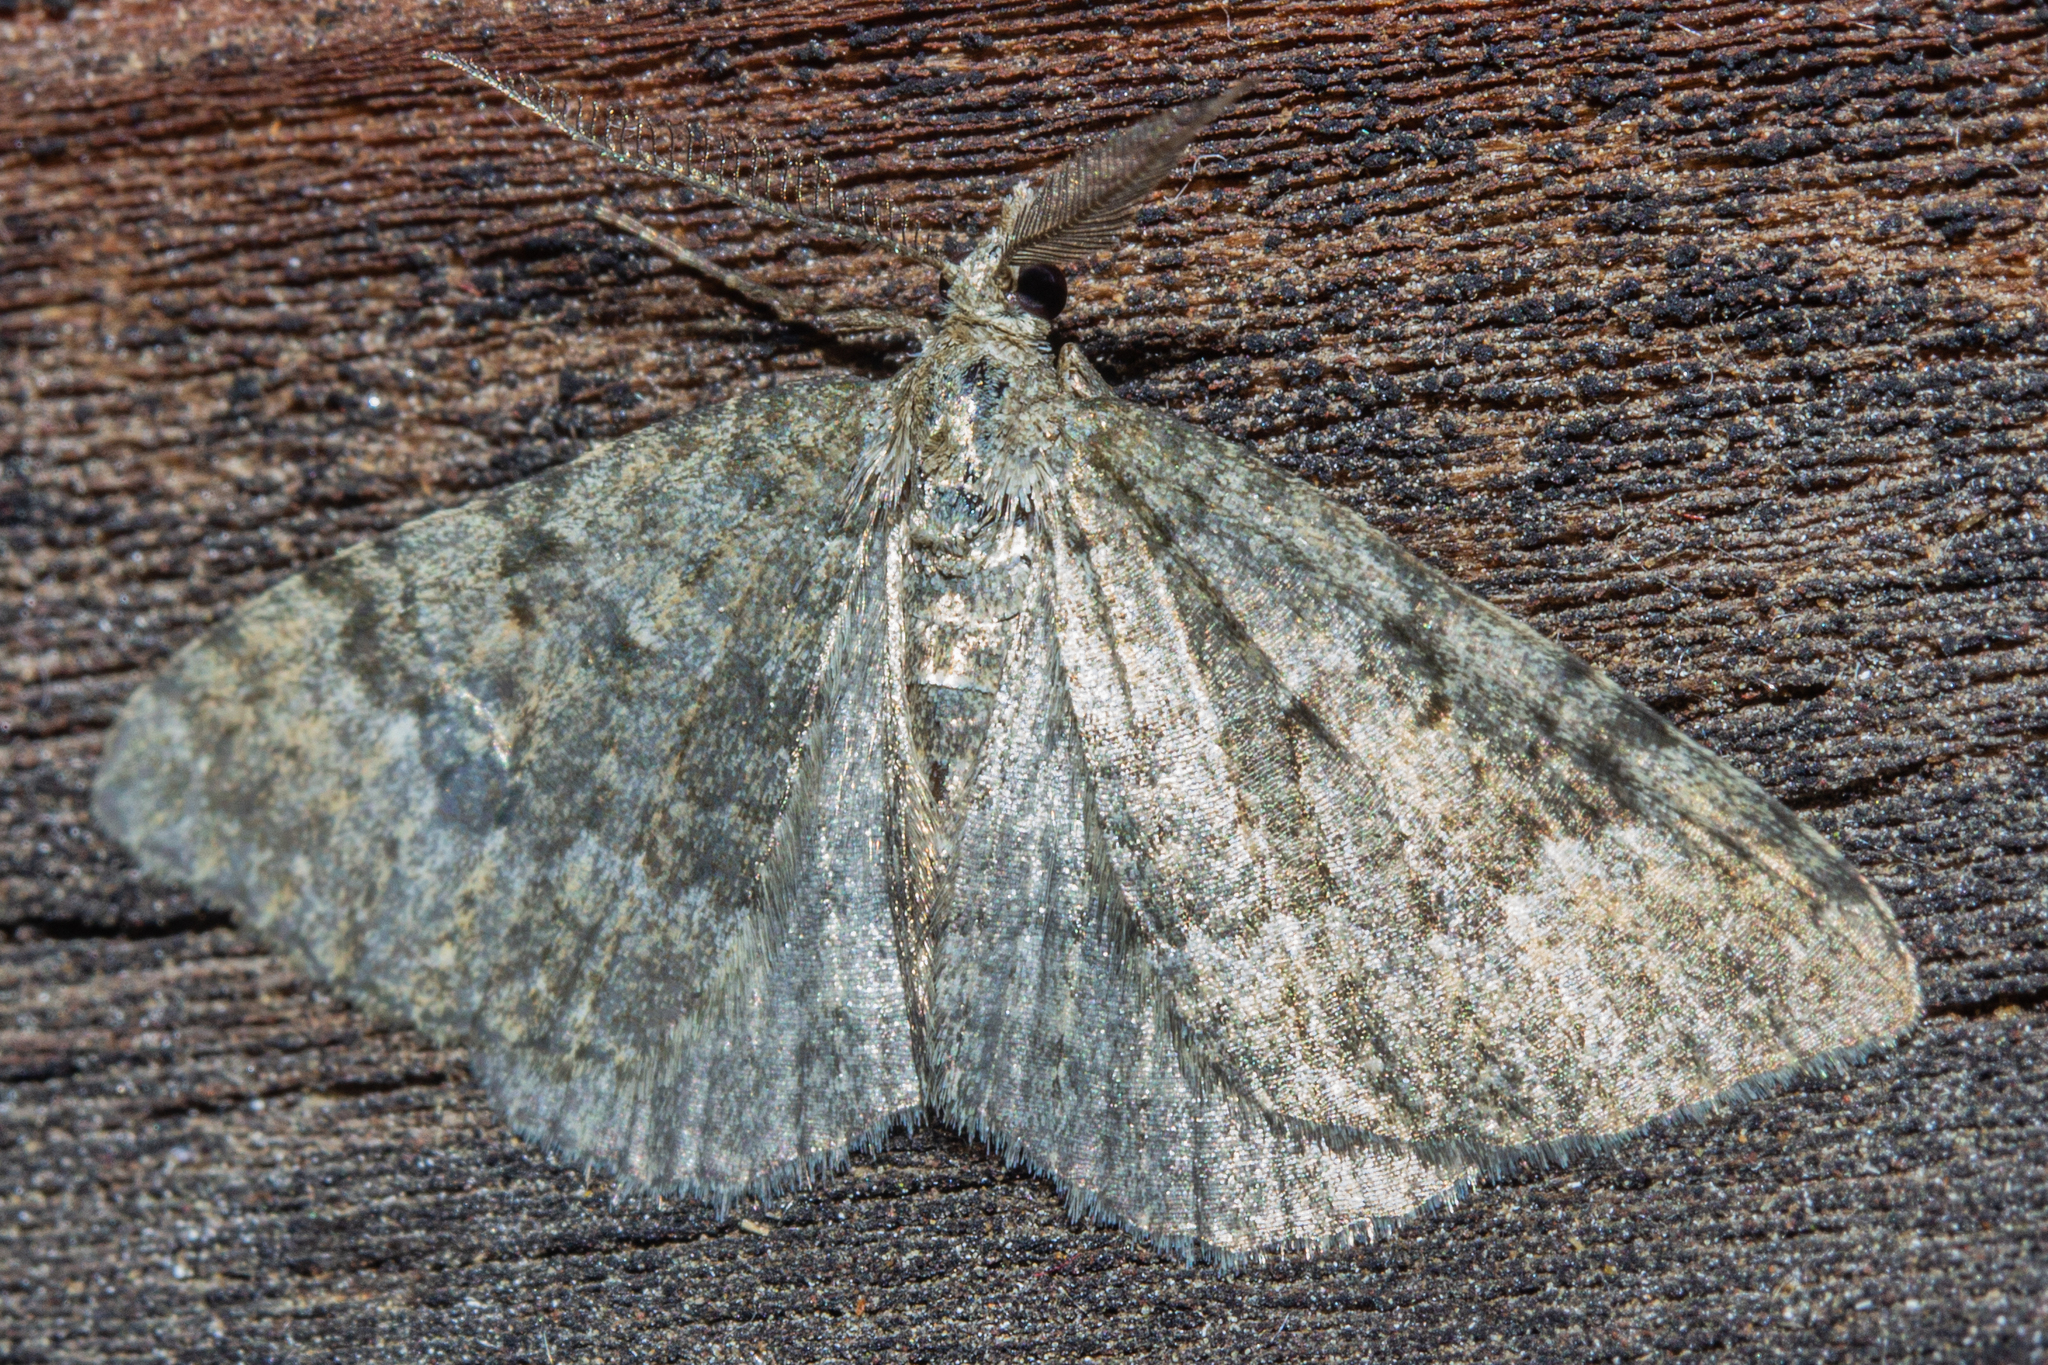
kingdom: Animalia
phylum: Arthropoda
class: Insecta
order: Lepidoptera
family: Geometridae
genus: Helastia
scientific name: Helastia corcularia
